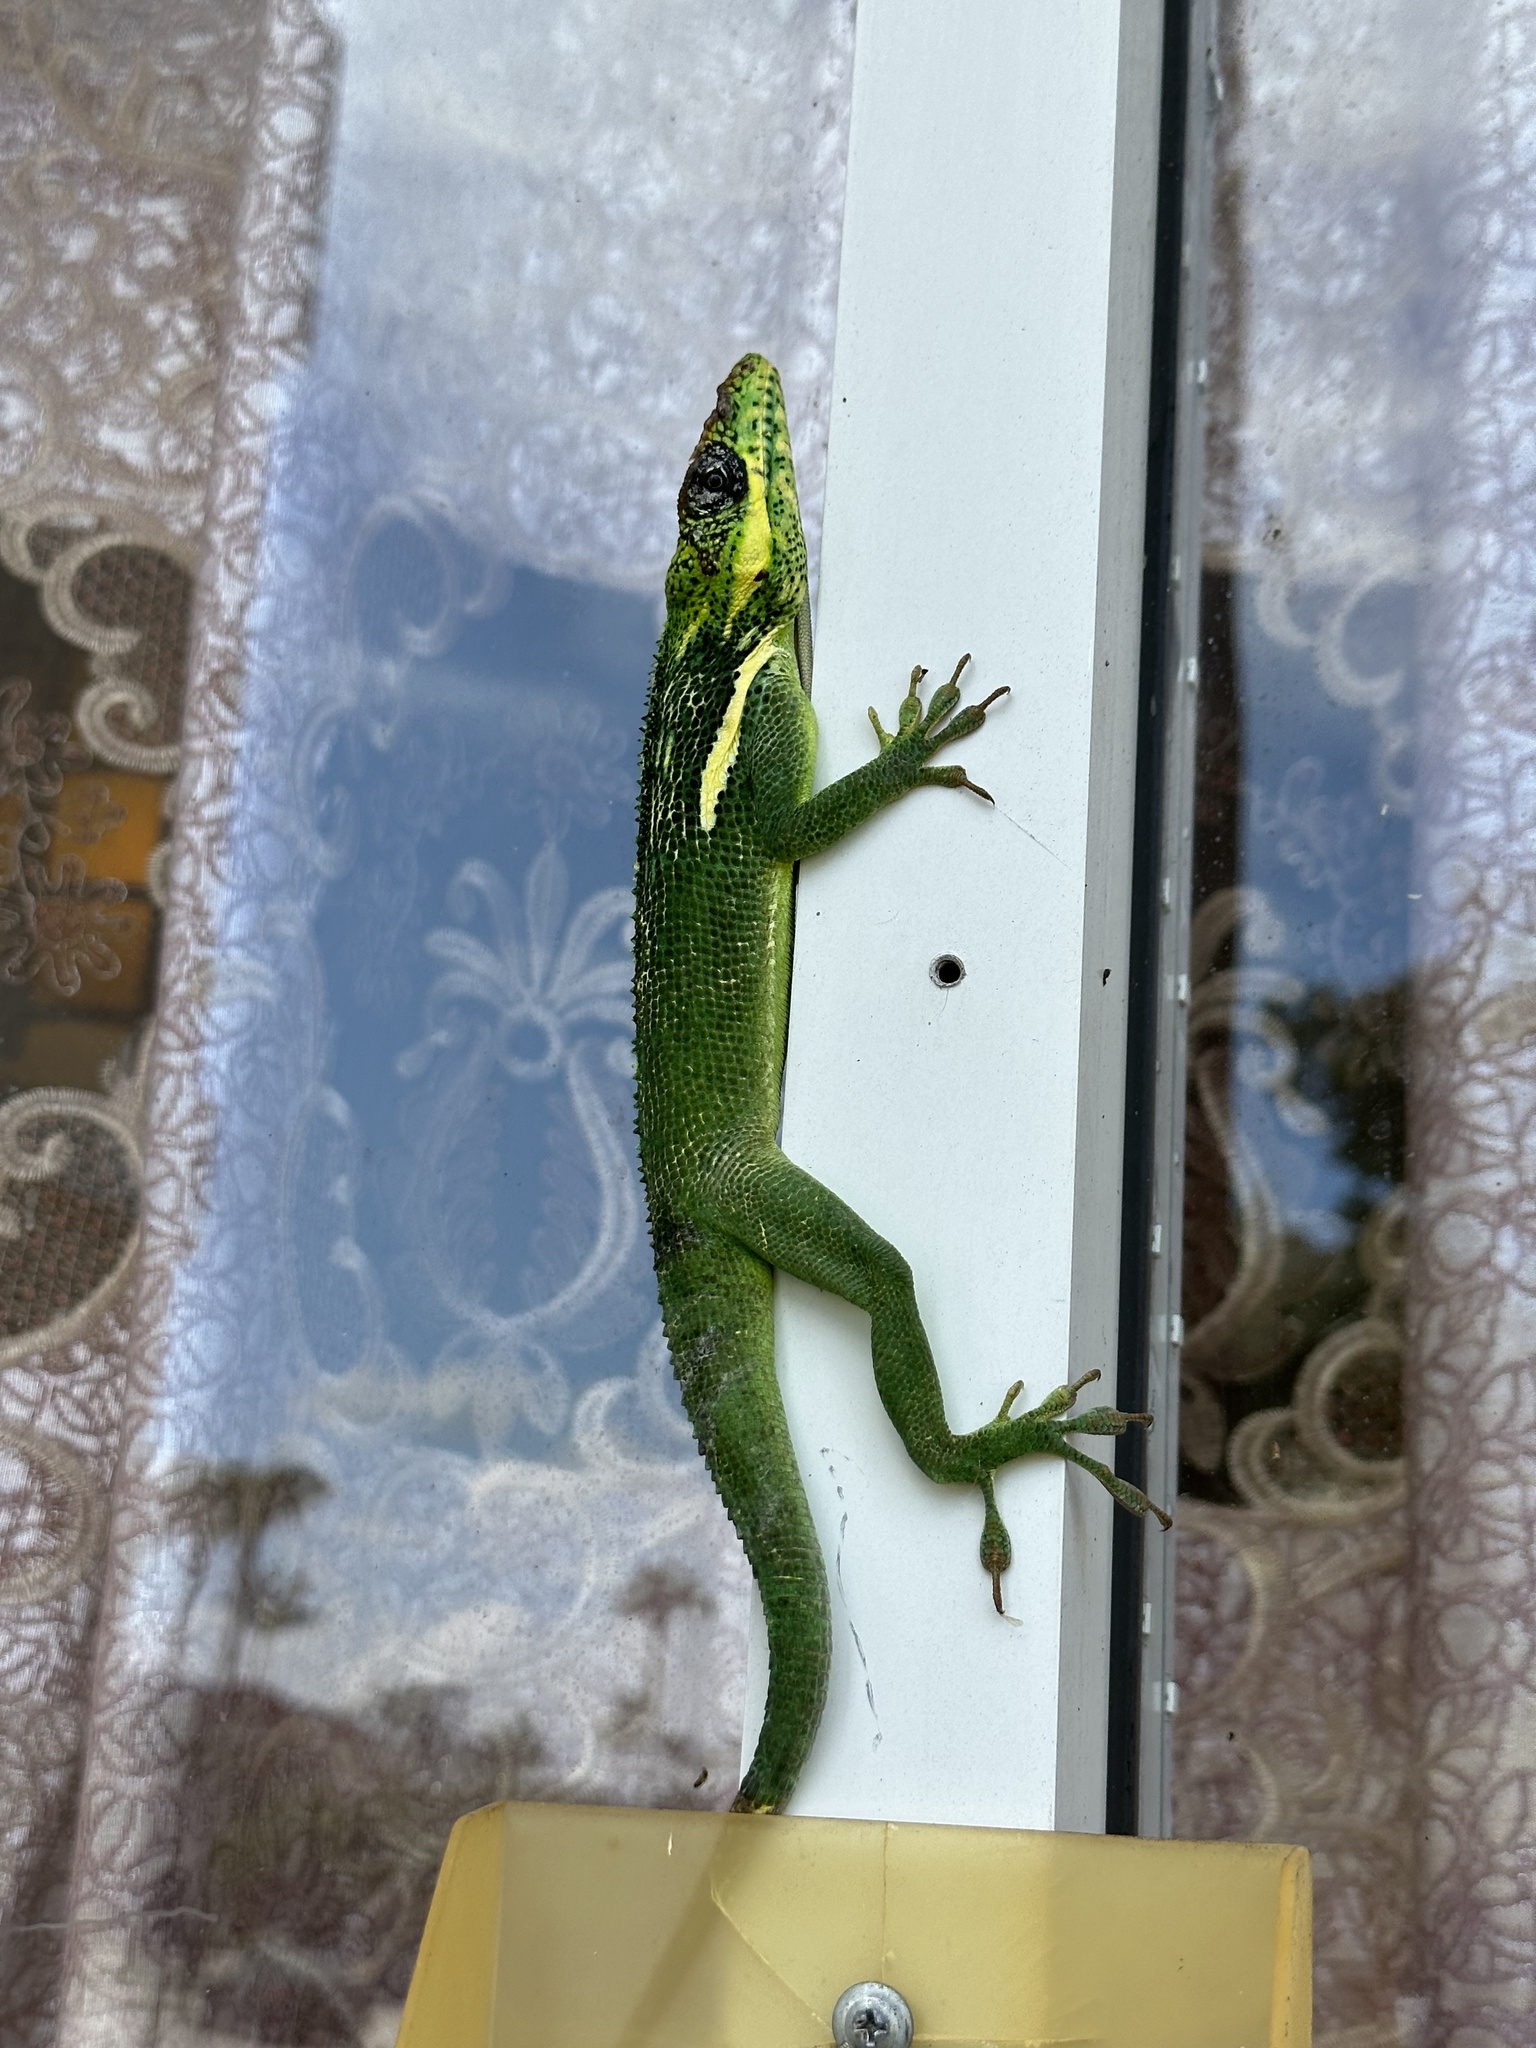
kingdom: Animalia
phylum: Chordata
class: Squamata
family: Dactyloidae
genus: Anolis
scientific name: Anolis equestris
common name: Knight anole
